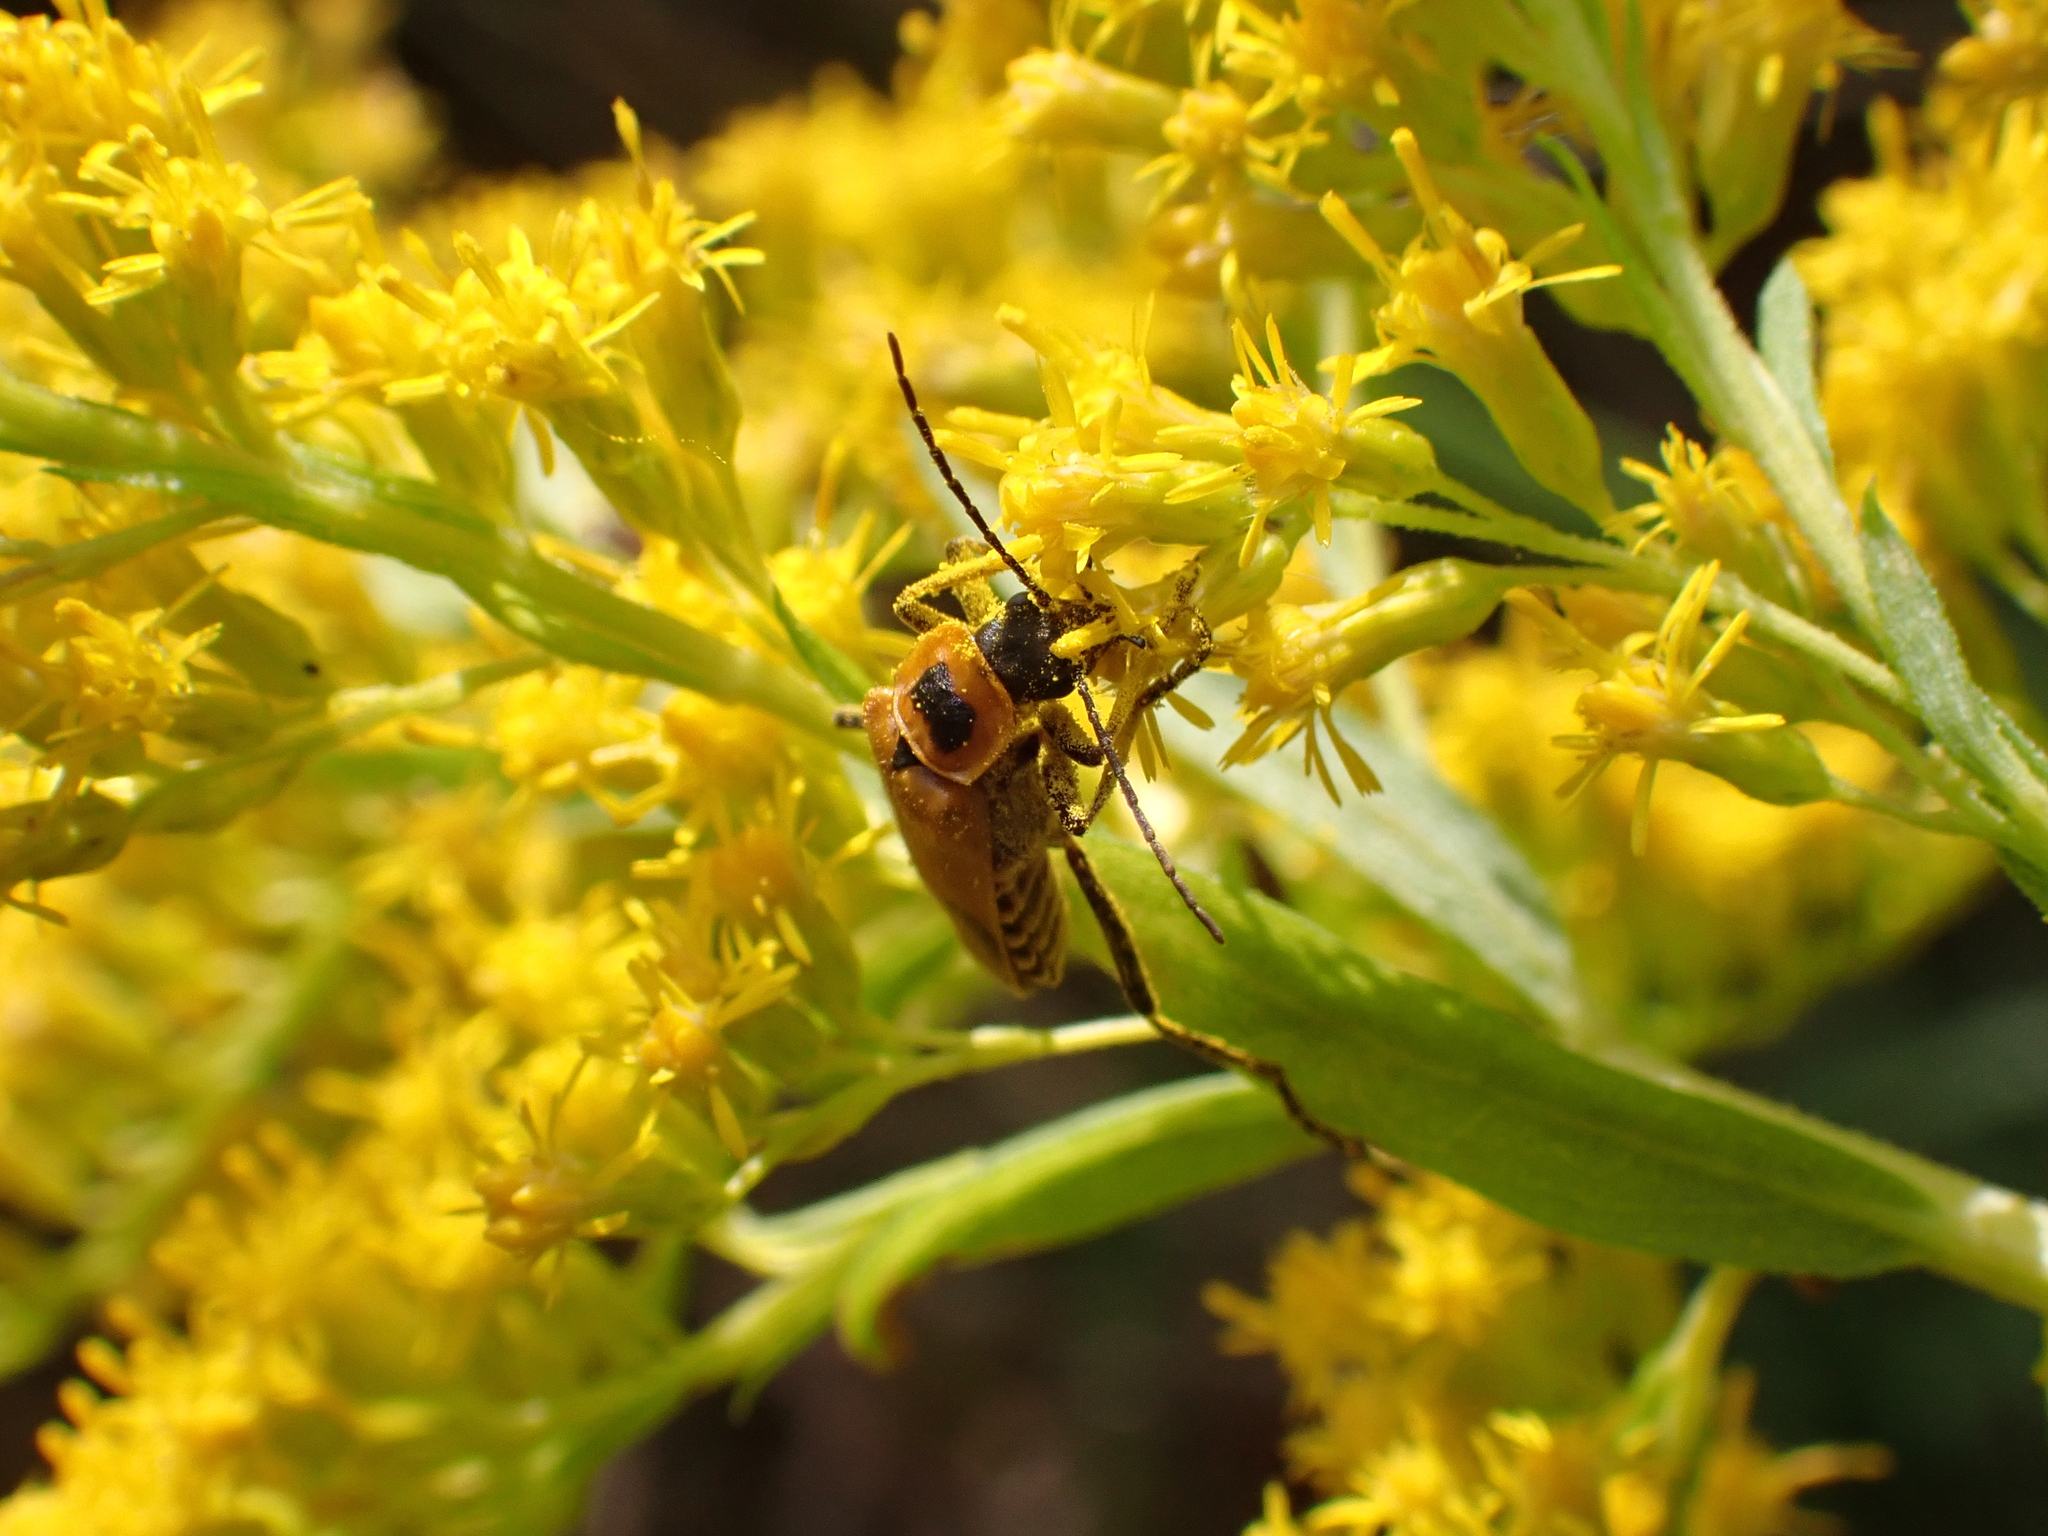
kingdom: Animalia
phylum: Arthropoda
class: Insecta
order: Coleoptera
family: Cantharidae
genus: Chauliognathus
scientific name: Chauliognathus pensylvanicus
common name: Goldenrod soldier beetle
